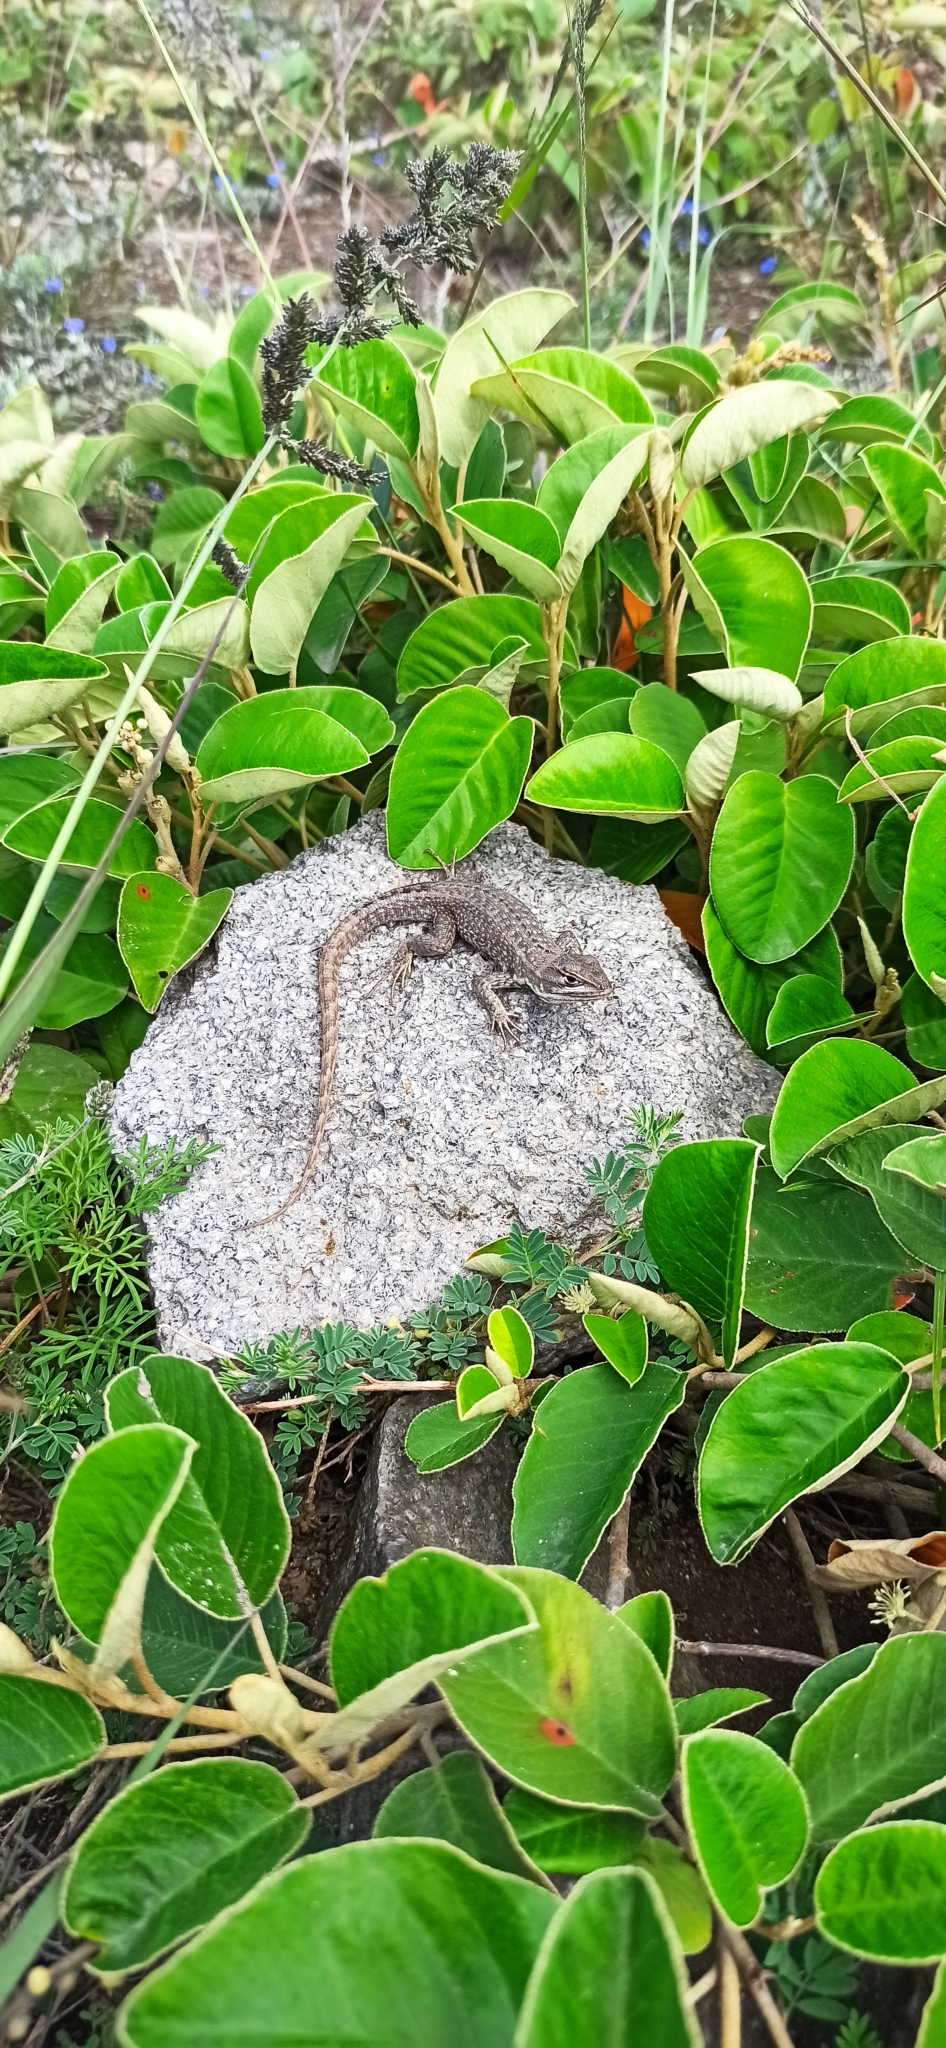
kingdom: Animalia
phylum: Chordata
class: Squamata
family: Tropiduridae
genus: Stenocercus
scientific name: Stenocercus guentheri
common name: Günther's whorltail iguana
